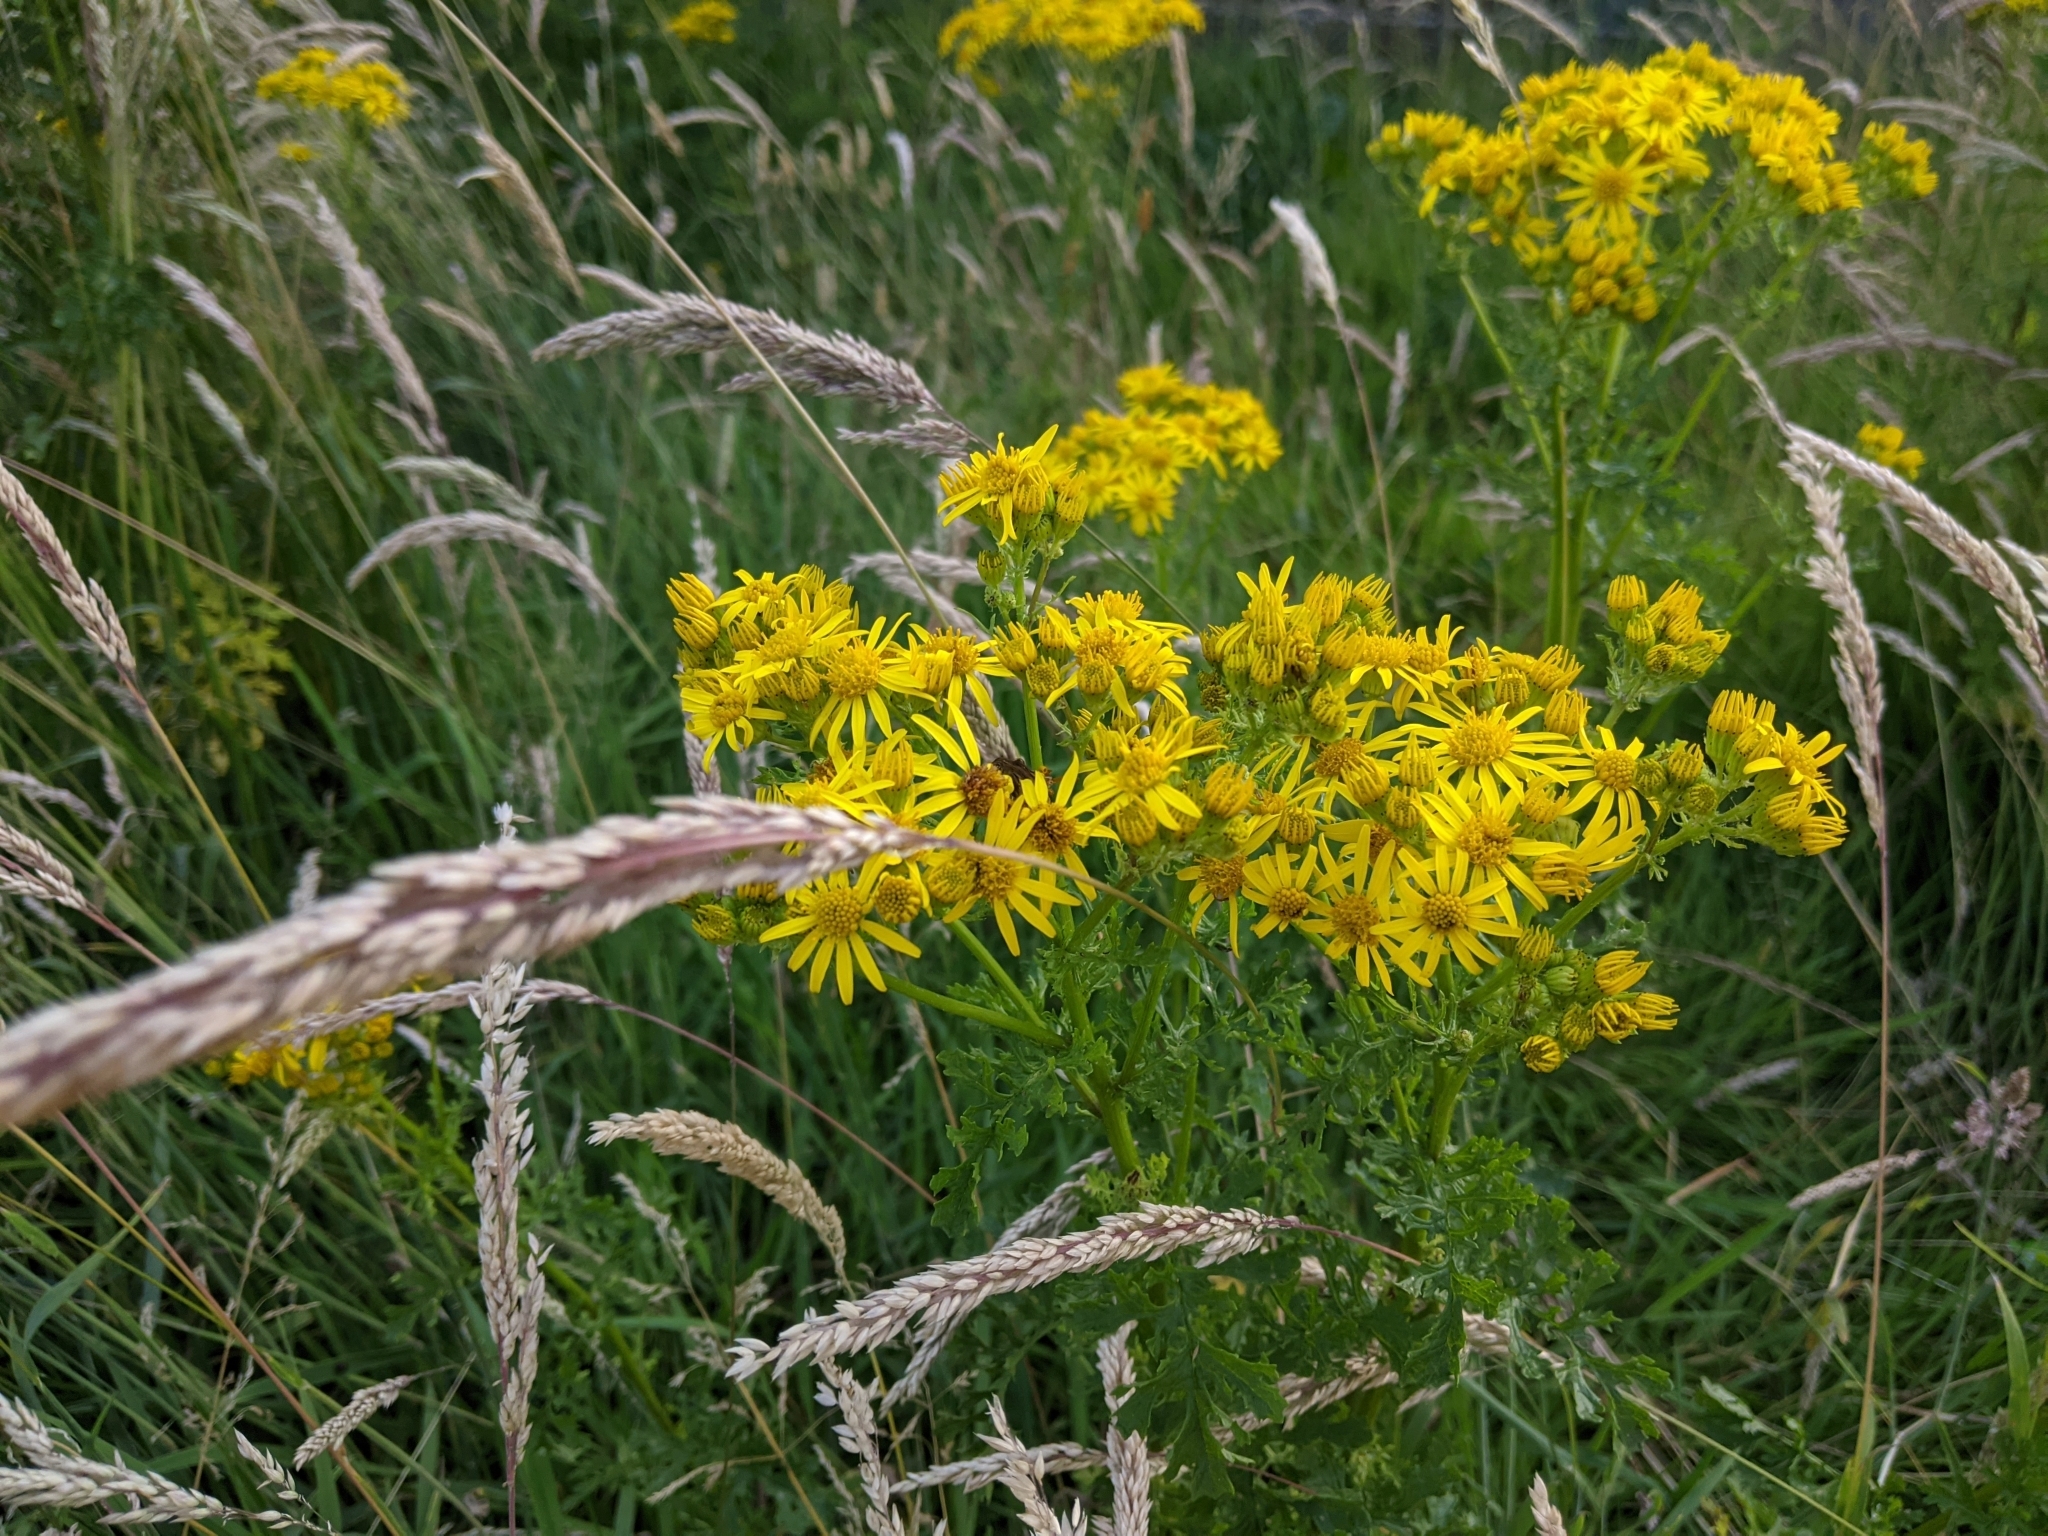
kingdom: Plantae
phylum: Tracheophyta
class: Magnoliopsida
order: Asterales
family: Asteraceae
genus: Jacobaea
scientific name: Jacobaea vulgaris
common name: Stinking willie
